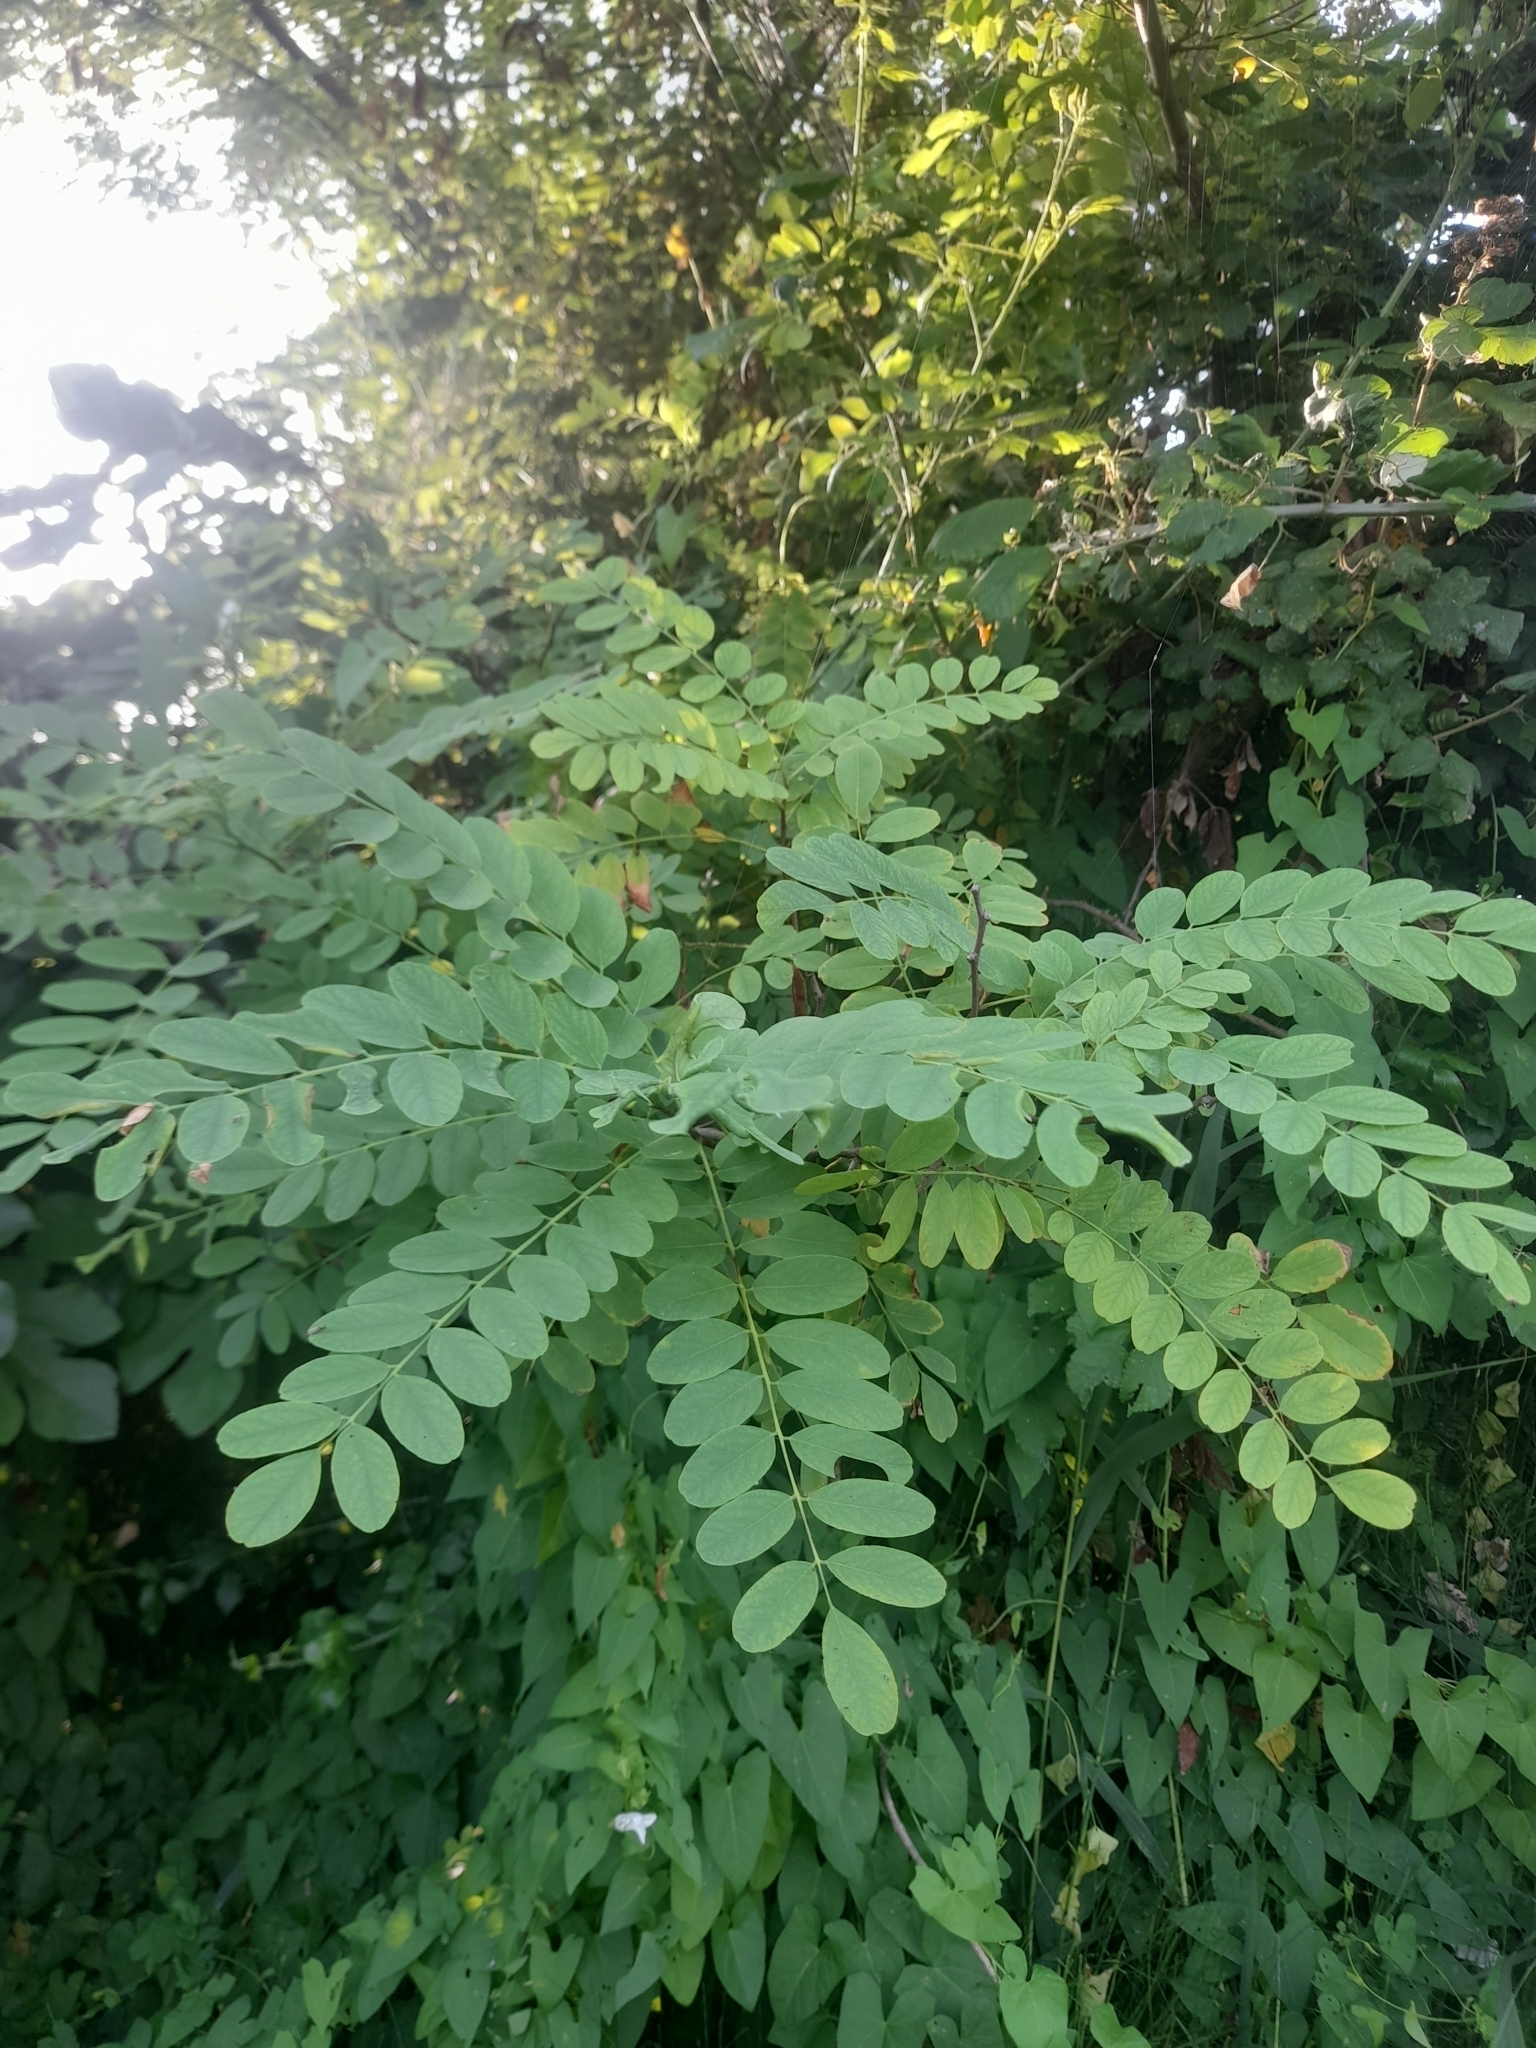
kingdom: Plantae
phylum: Tracheophyta
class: Magnoliopsida
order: Fabales
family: Fabaceae
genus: Robinia
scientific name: Robinia pseudoacacia
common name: Black locust
